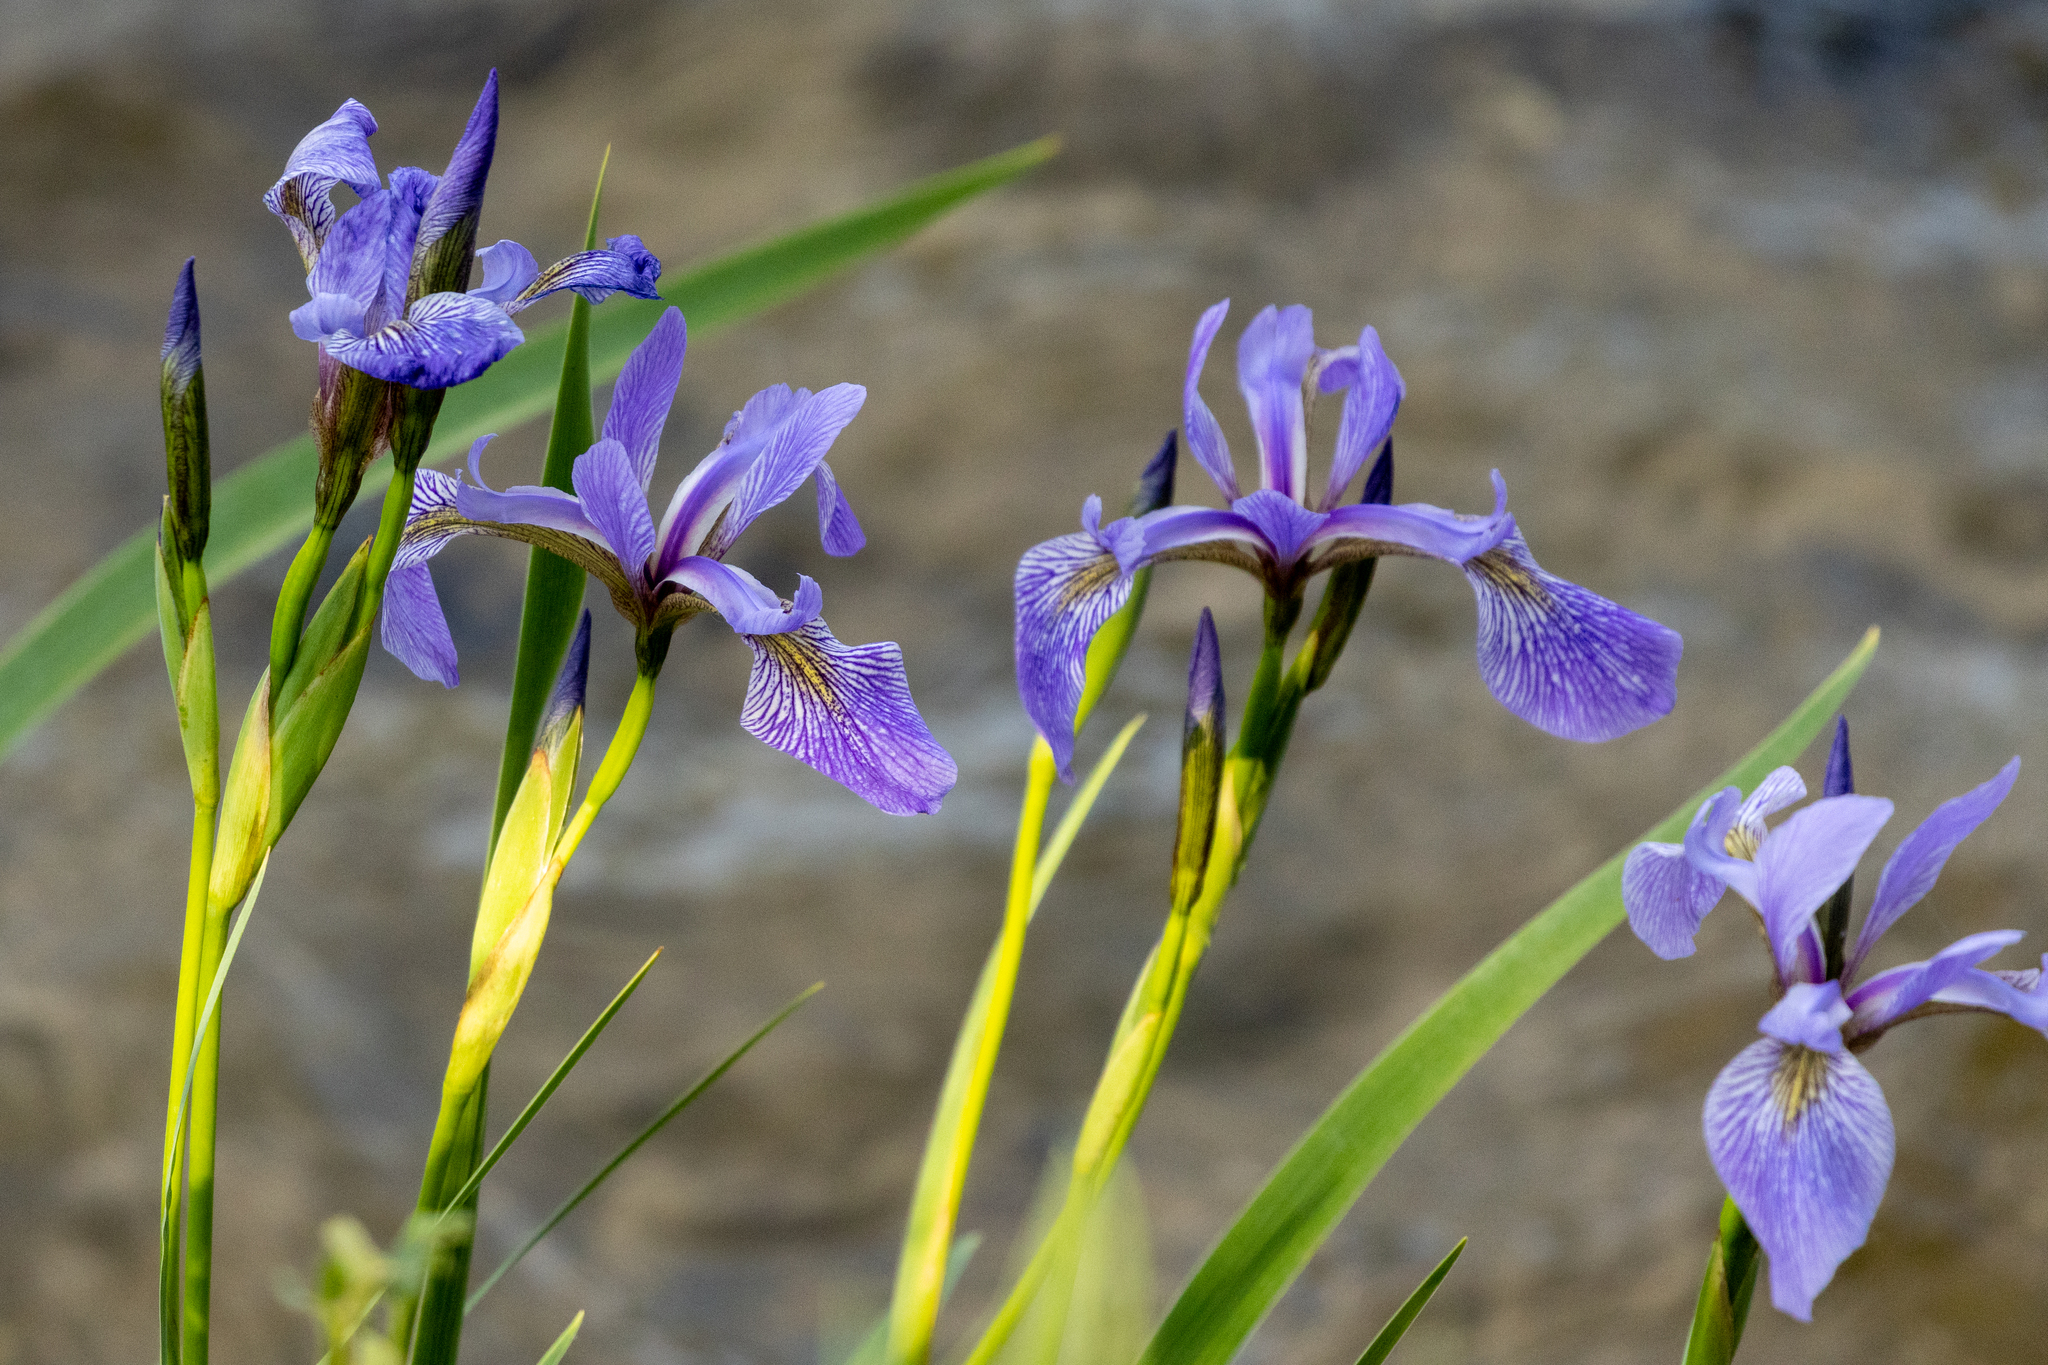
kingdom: Plantae
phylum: Tracheophyta
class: Liliopsida
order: Asparagales
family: Iridaceae
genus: Iris
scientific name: Iris versicolor
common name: Purple iris
